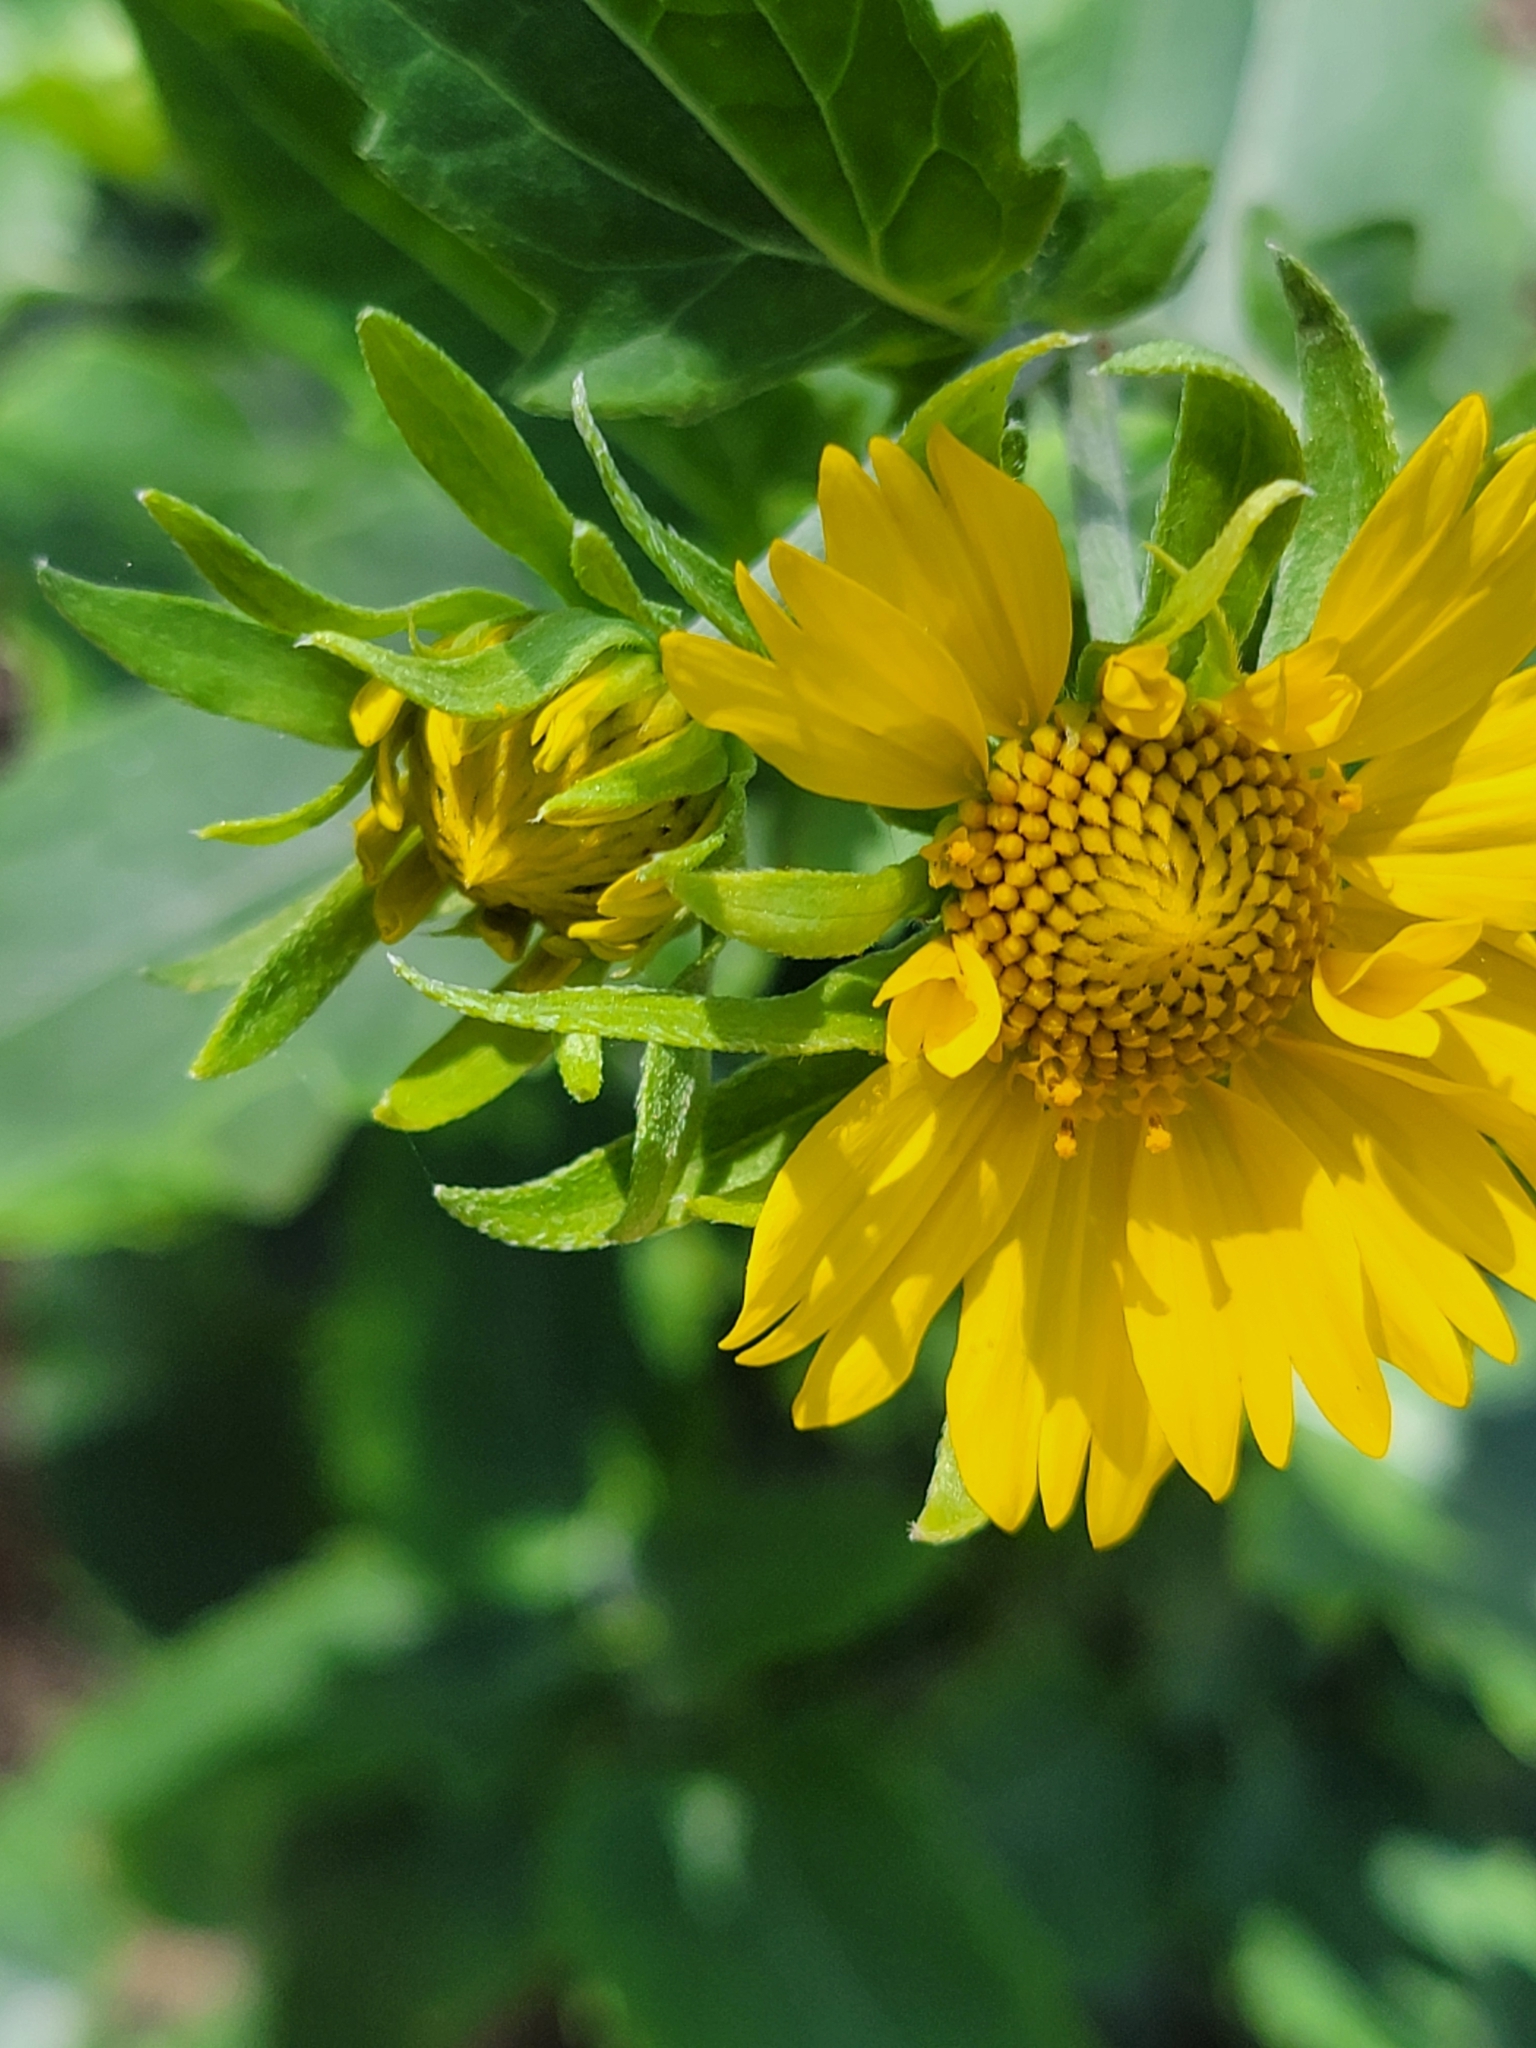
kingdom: Plantae
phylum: Tracheophyta
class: Magnoliopsida
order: Asterales
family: Asteraceae
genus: Verbesina
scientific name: Verbesina encelioides
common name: Golden crownbeard
